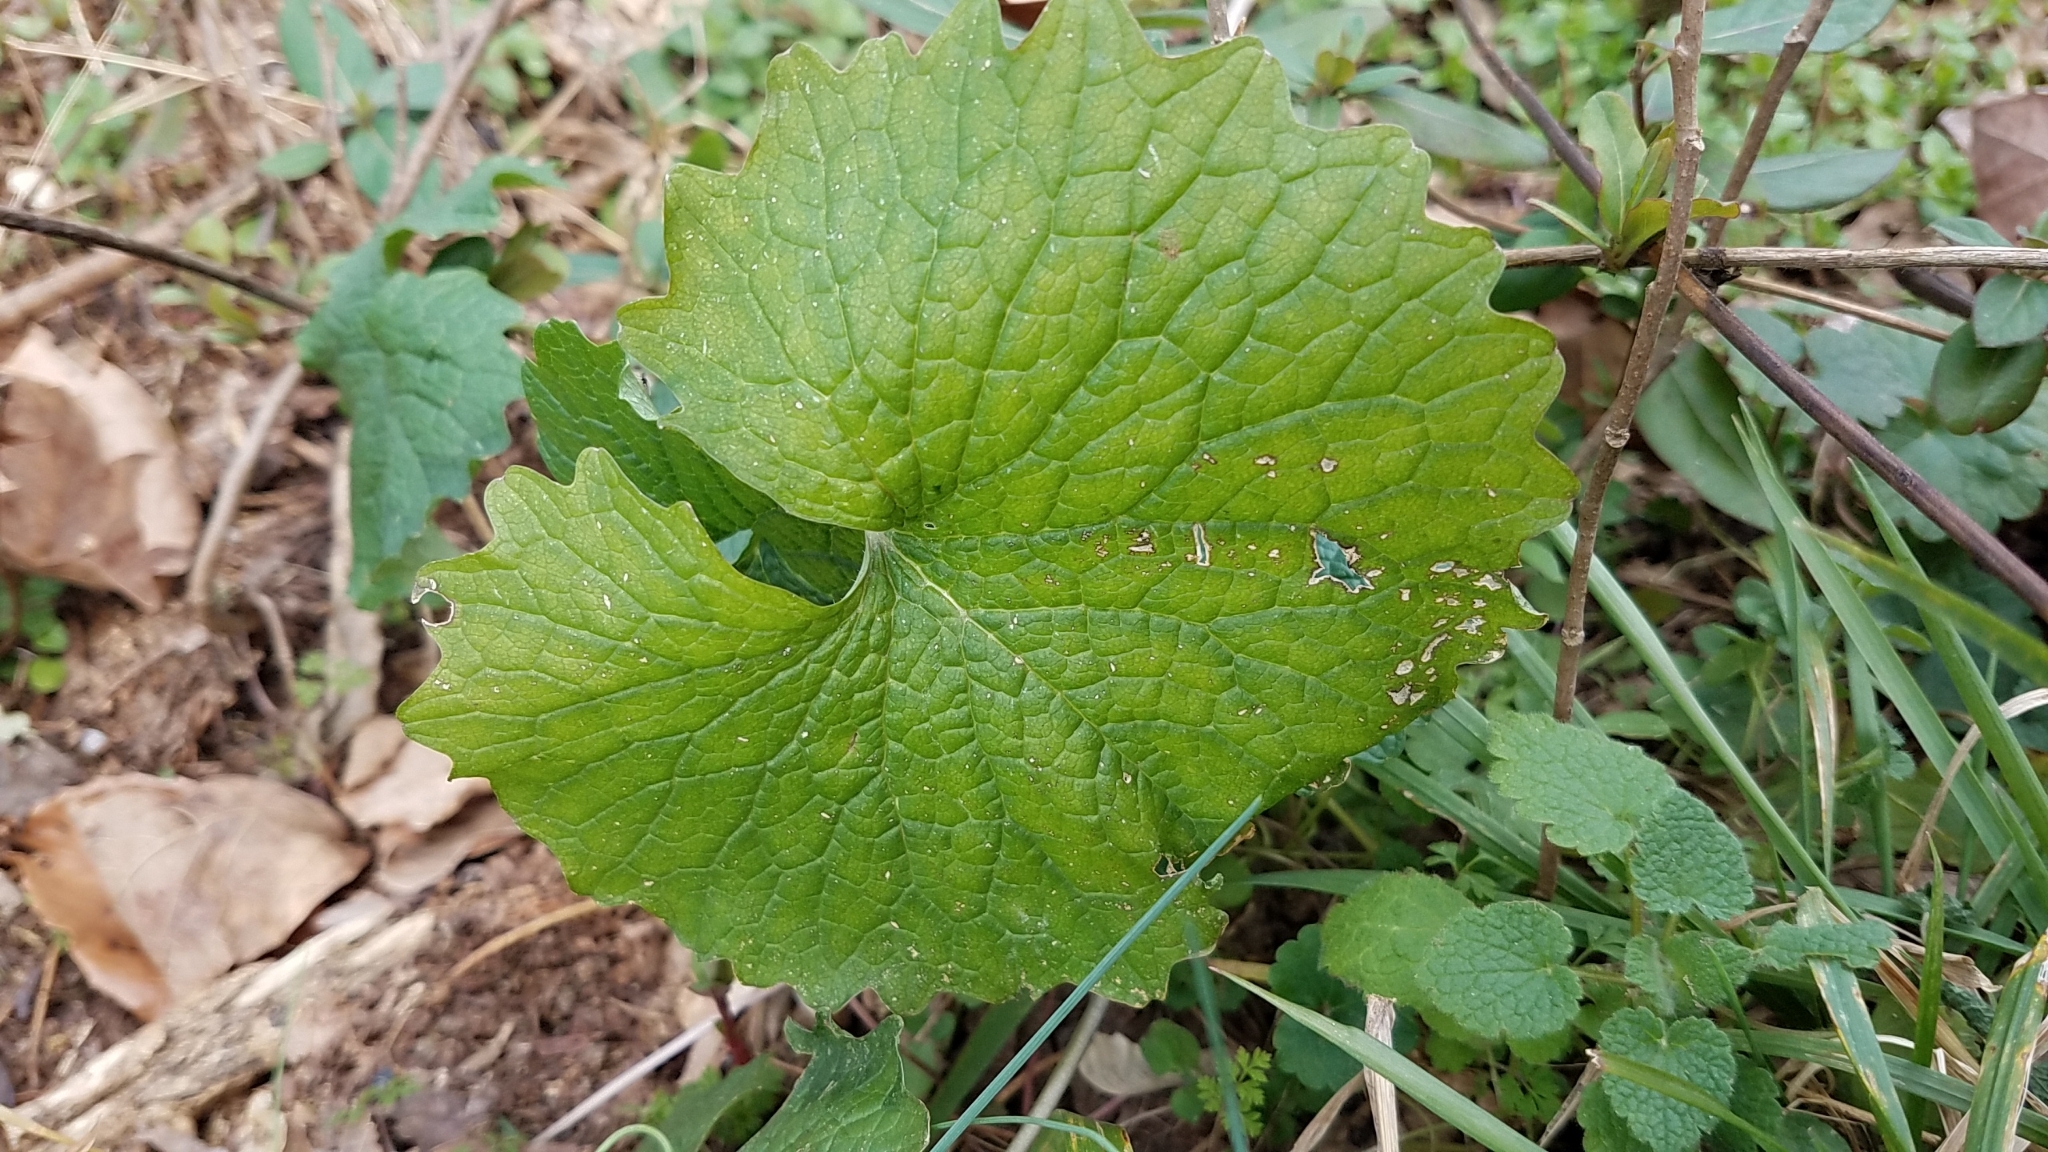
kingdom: Plantae
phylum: Tracheophyta
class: Magnoliopsida
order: Brassicales
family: Brassicaceae
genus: Alliaria
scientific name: Alliaria petiolata
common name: Garlic mustard
